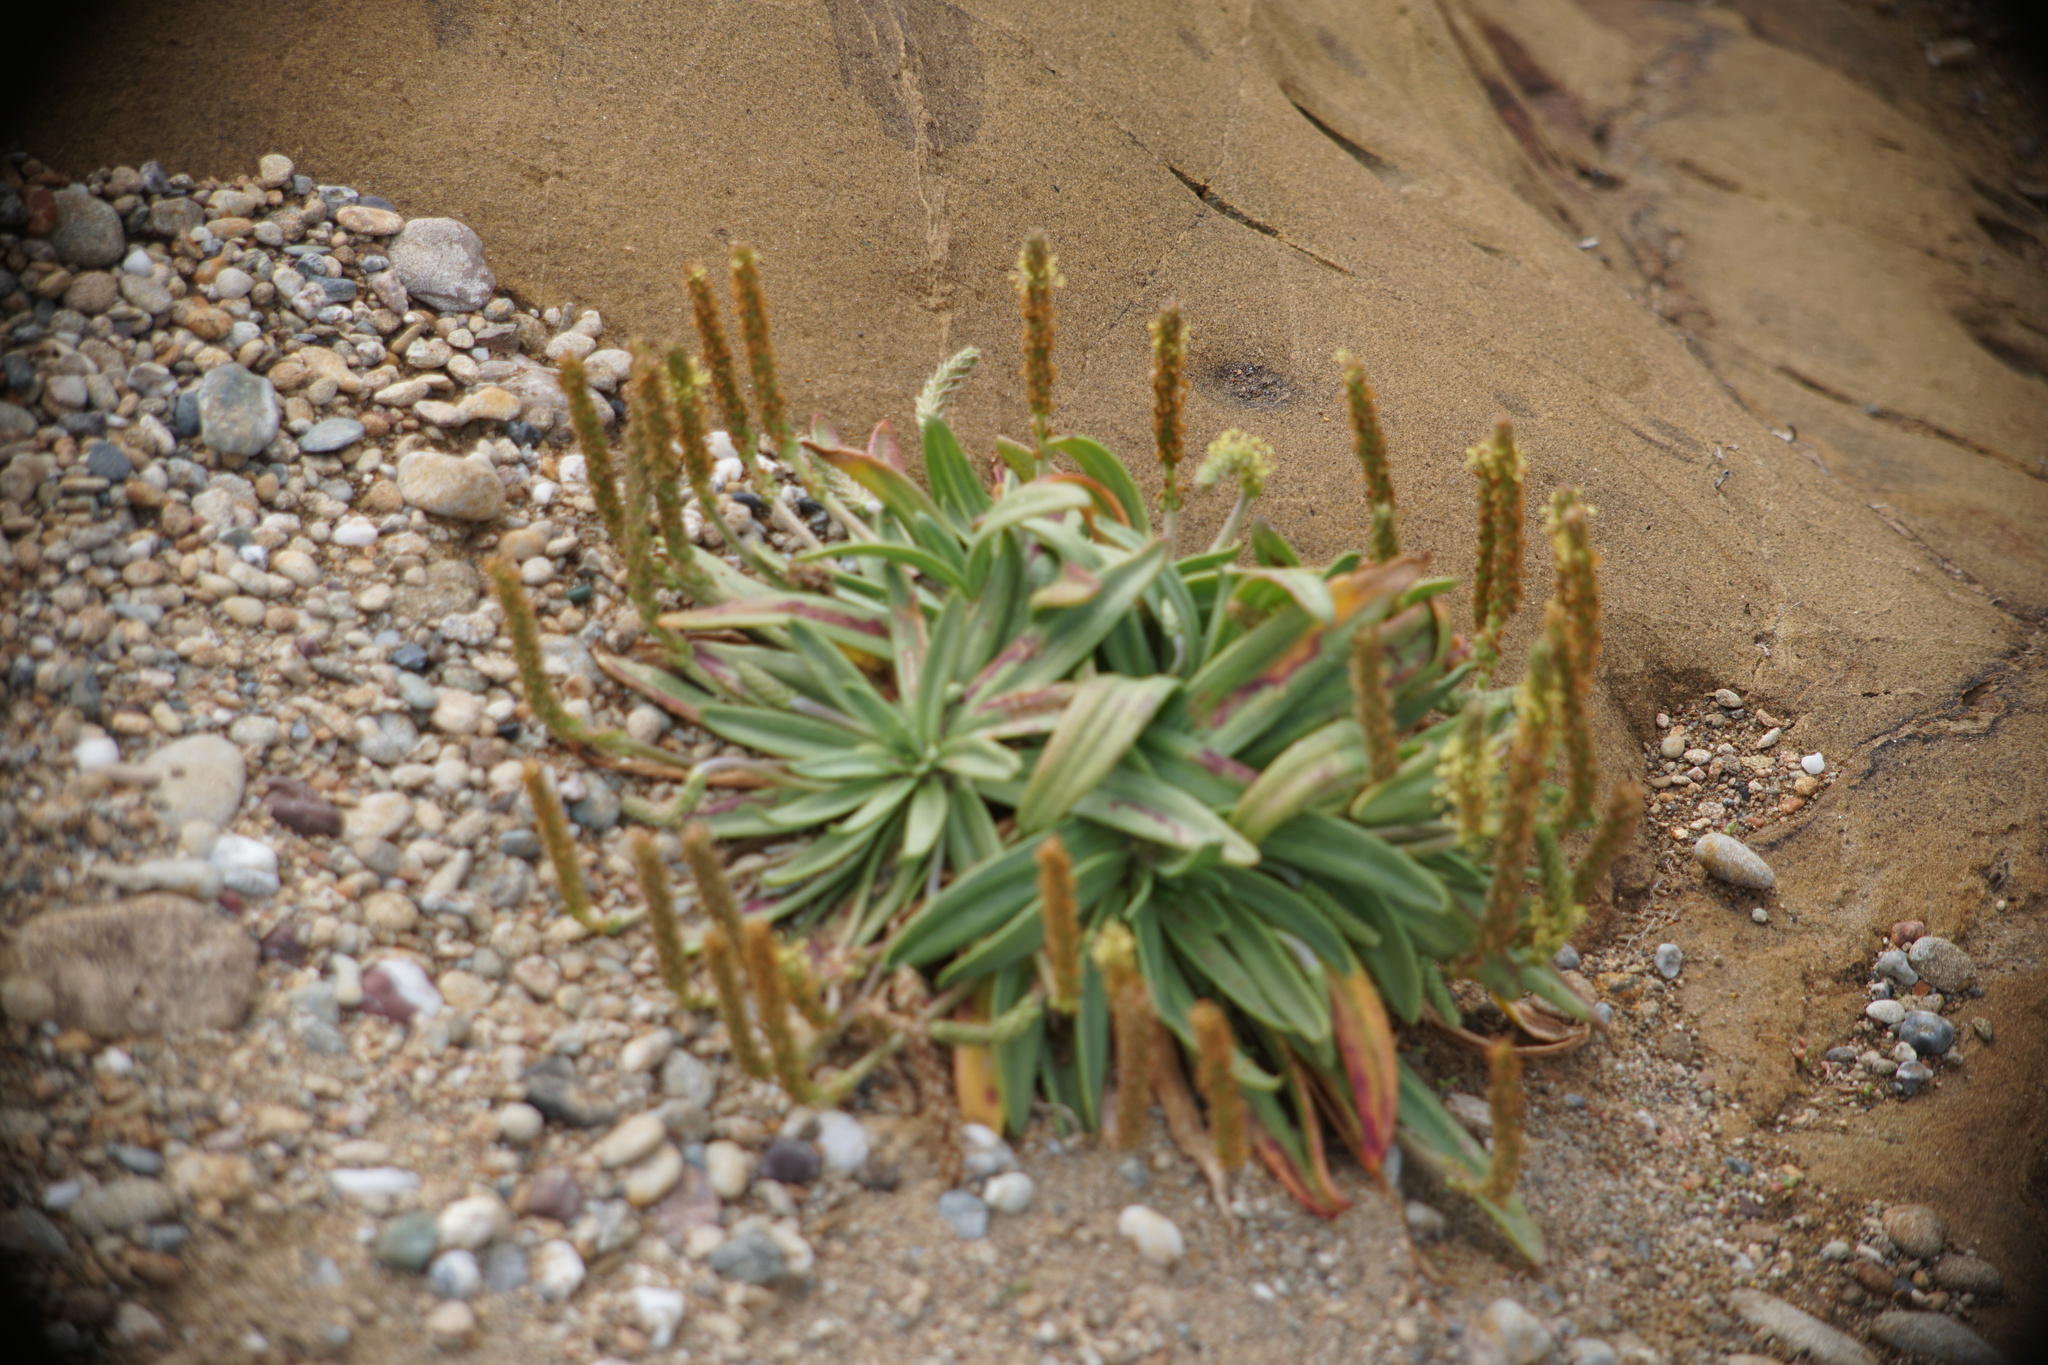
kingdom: Plantae
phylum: Tracheophyta
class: Magnoliopsida
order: Lamiales
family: Plantaginaceae
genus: Plantago
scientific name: Plantago maritima
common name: Sea plantain
